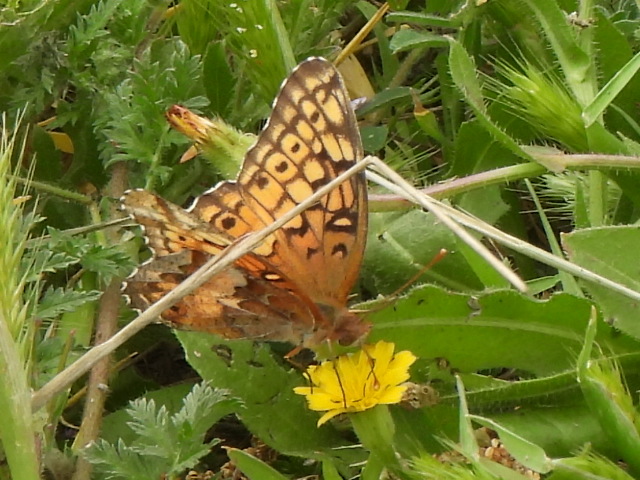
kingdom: Animalia
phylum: Arthropoda
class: Insecta
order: Lepidoptera
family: Nymphalidae
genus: Euptoieta
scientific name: Euptoieta claudia
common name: Variegated fritillary
